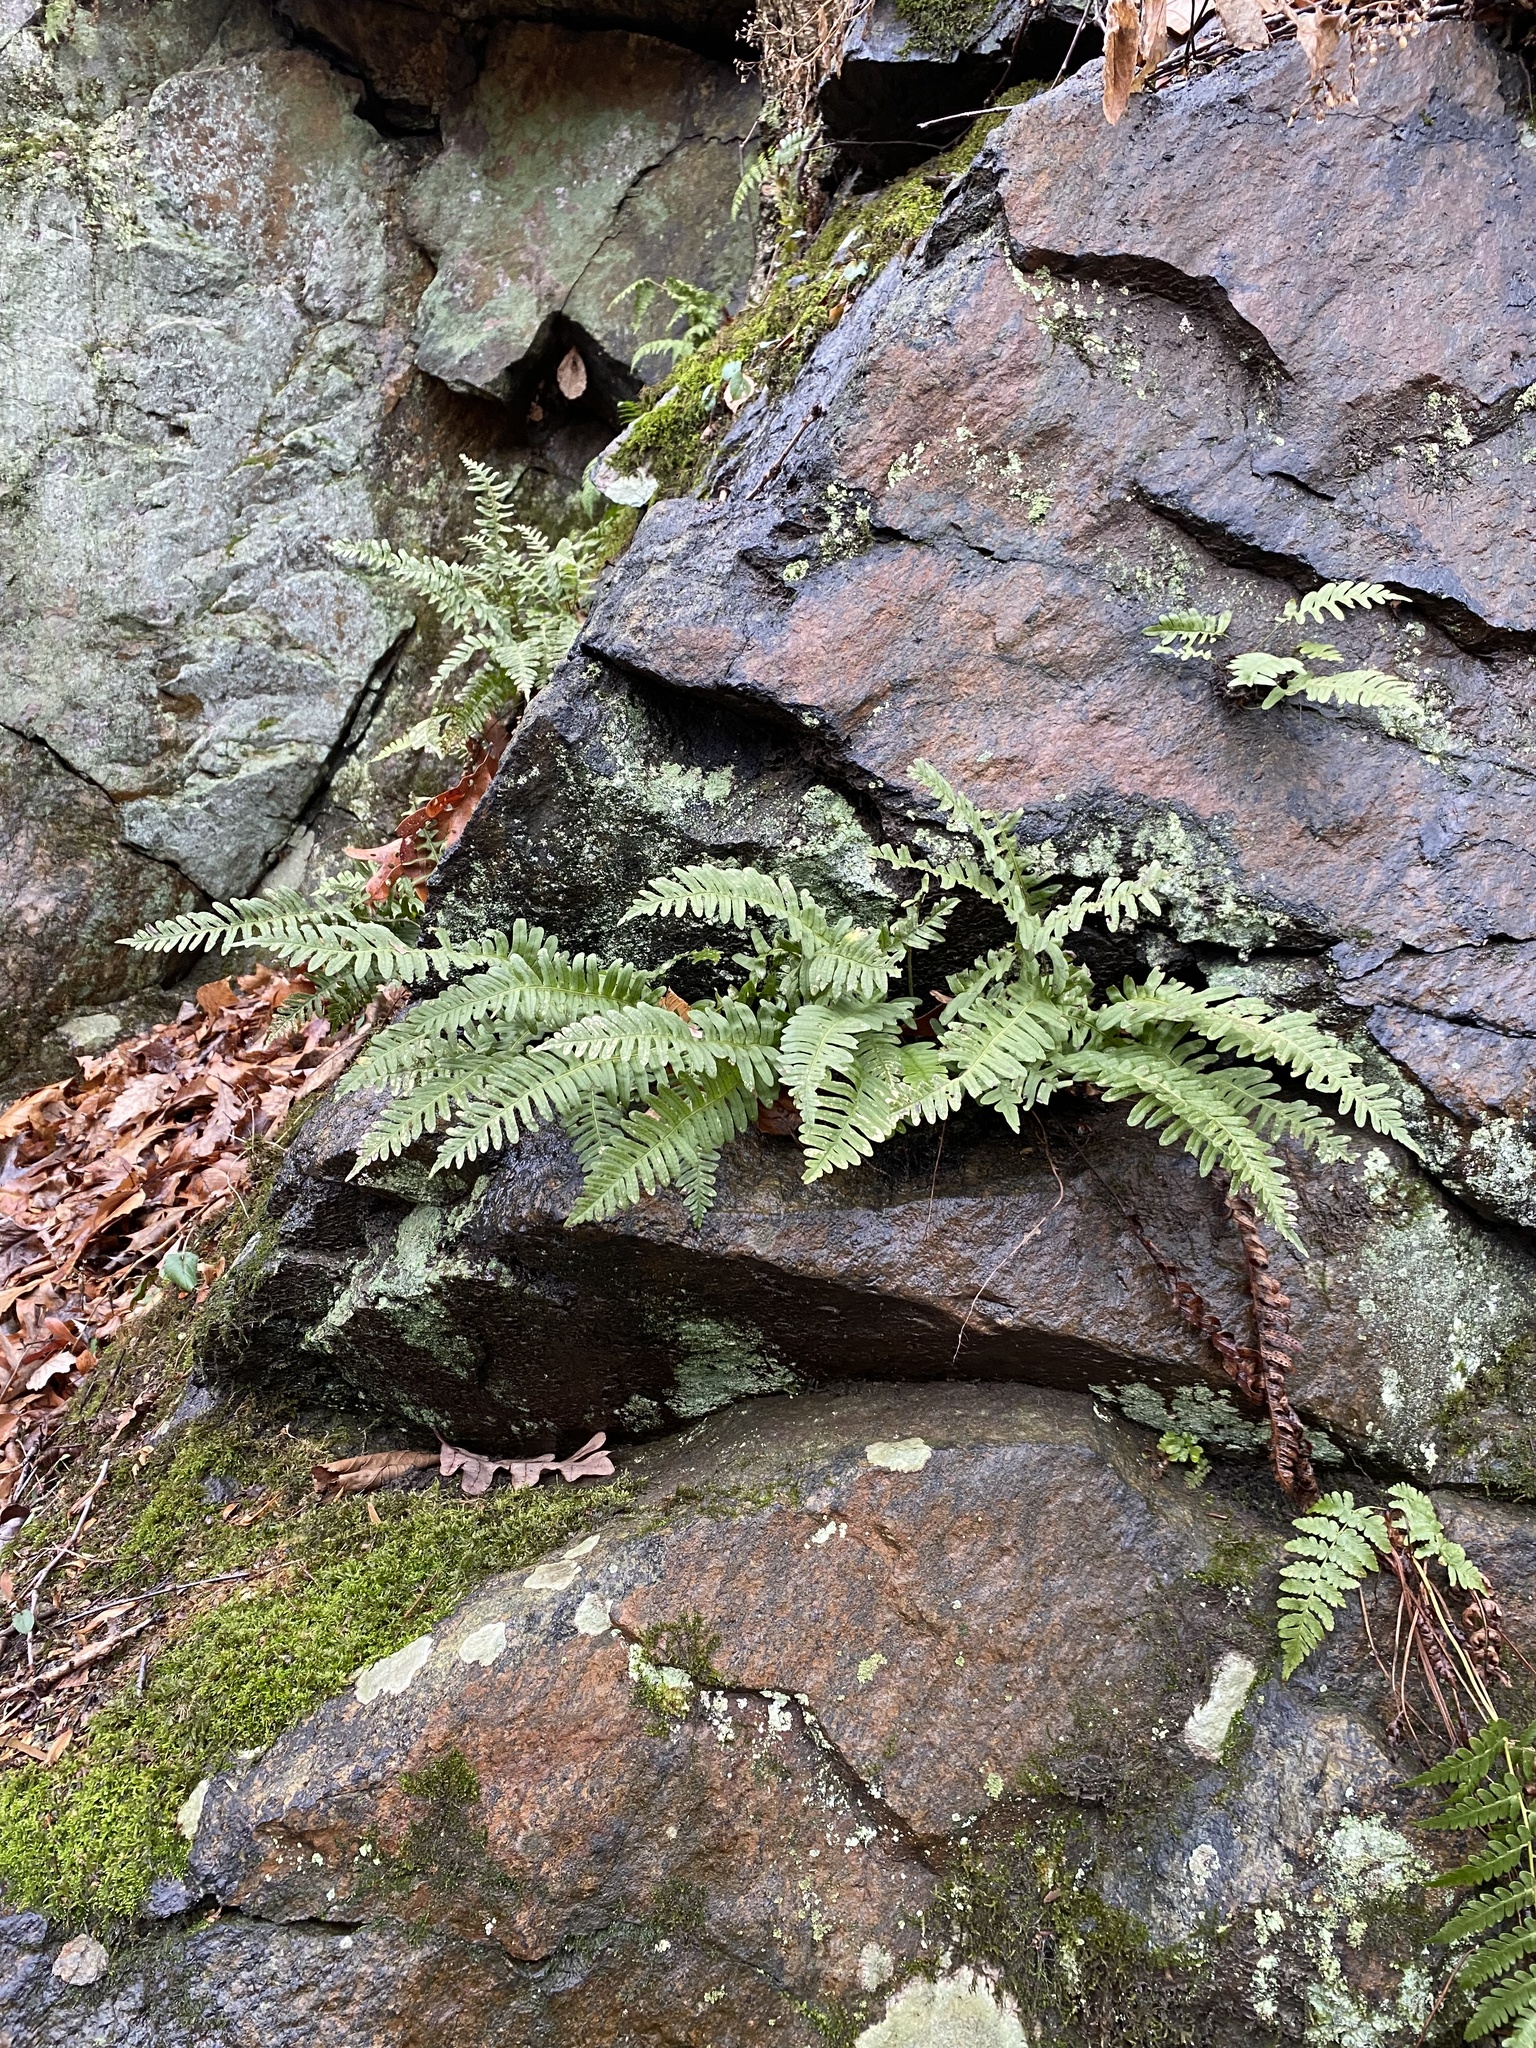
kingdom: Plantae
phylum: Tracheophyta
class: Polypodiopsida
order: Polypodiales
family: Polypodiaceae
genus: Polypodium
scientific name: Polypodium virginianum
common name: American wall fern
